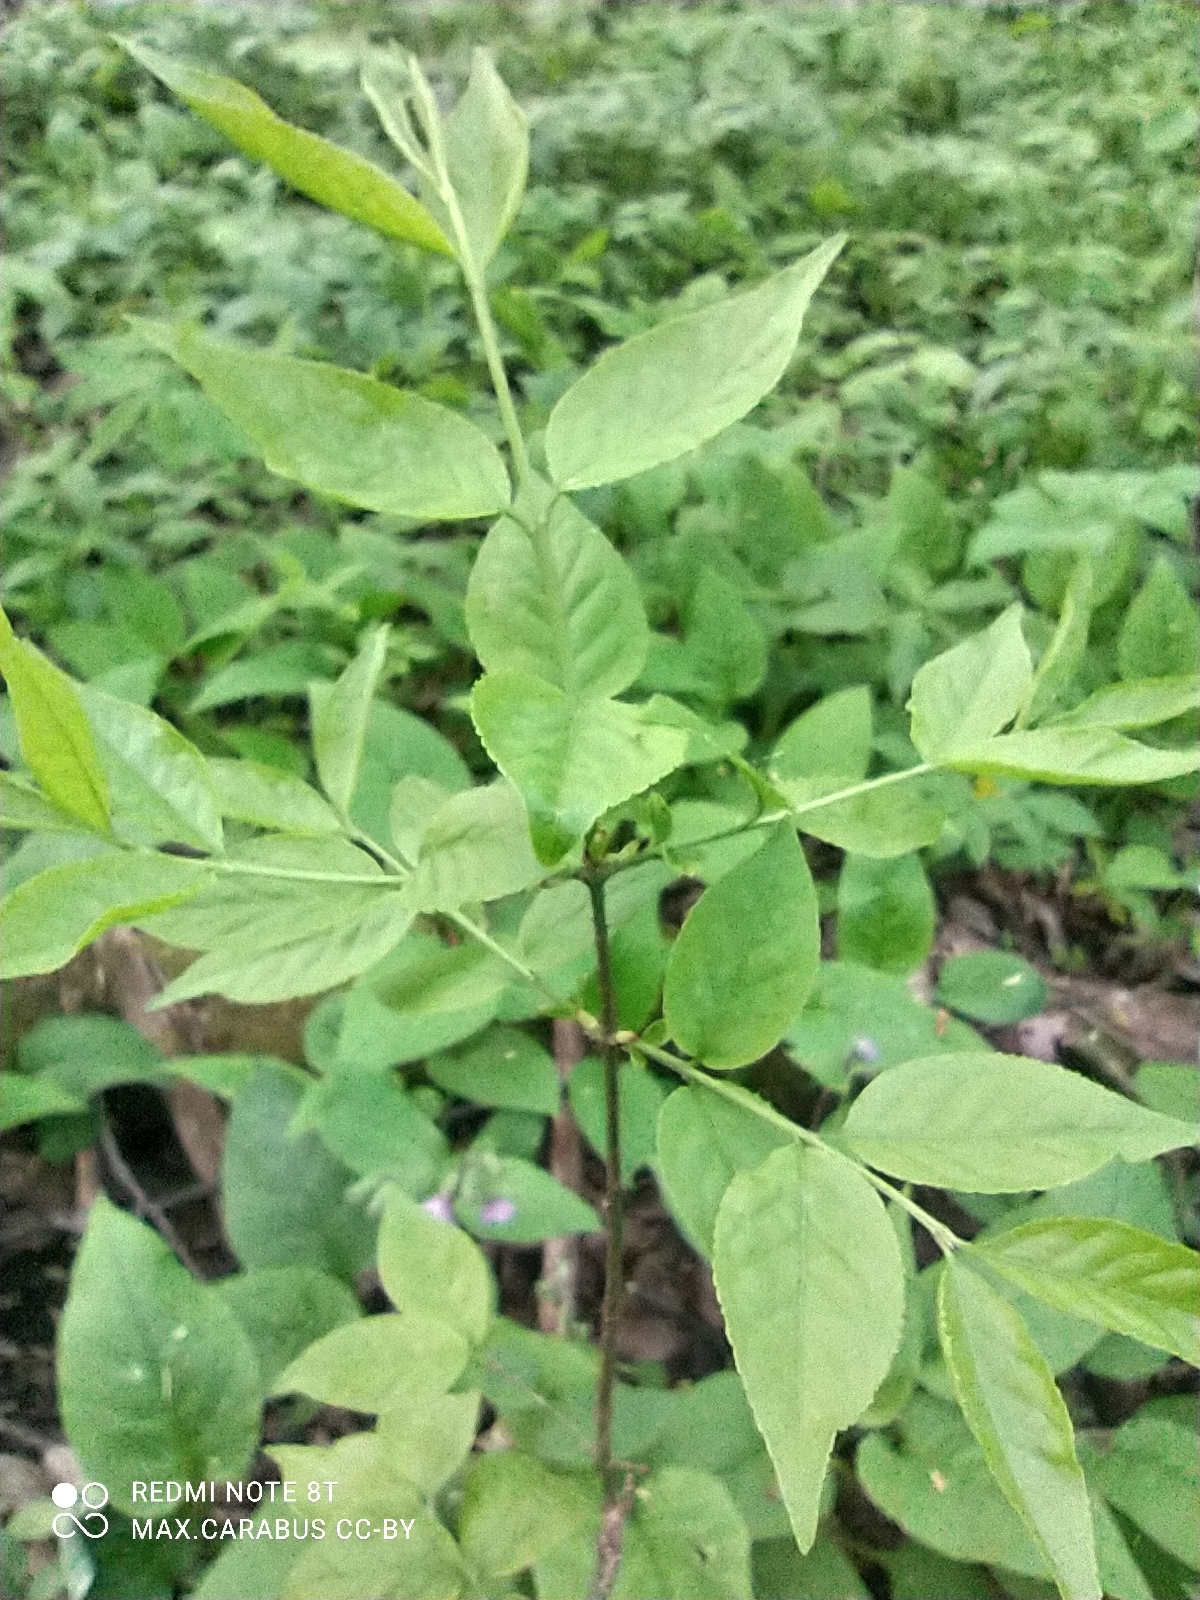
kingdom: Plantae
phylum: Tracheophyta
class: Magnoliopsida
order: Celastrales
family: Celastraceae
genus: Euonymus
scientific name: Euonymus verrucosus
